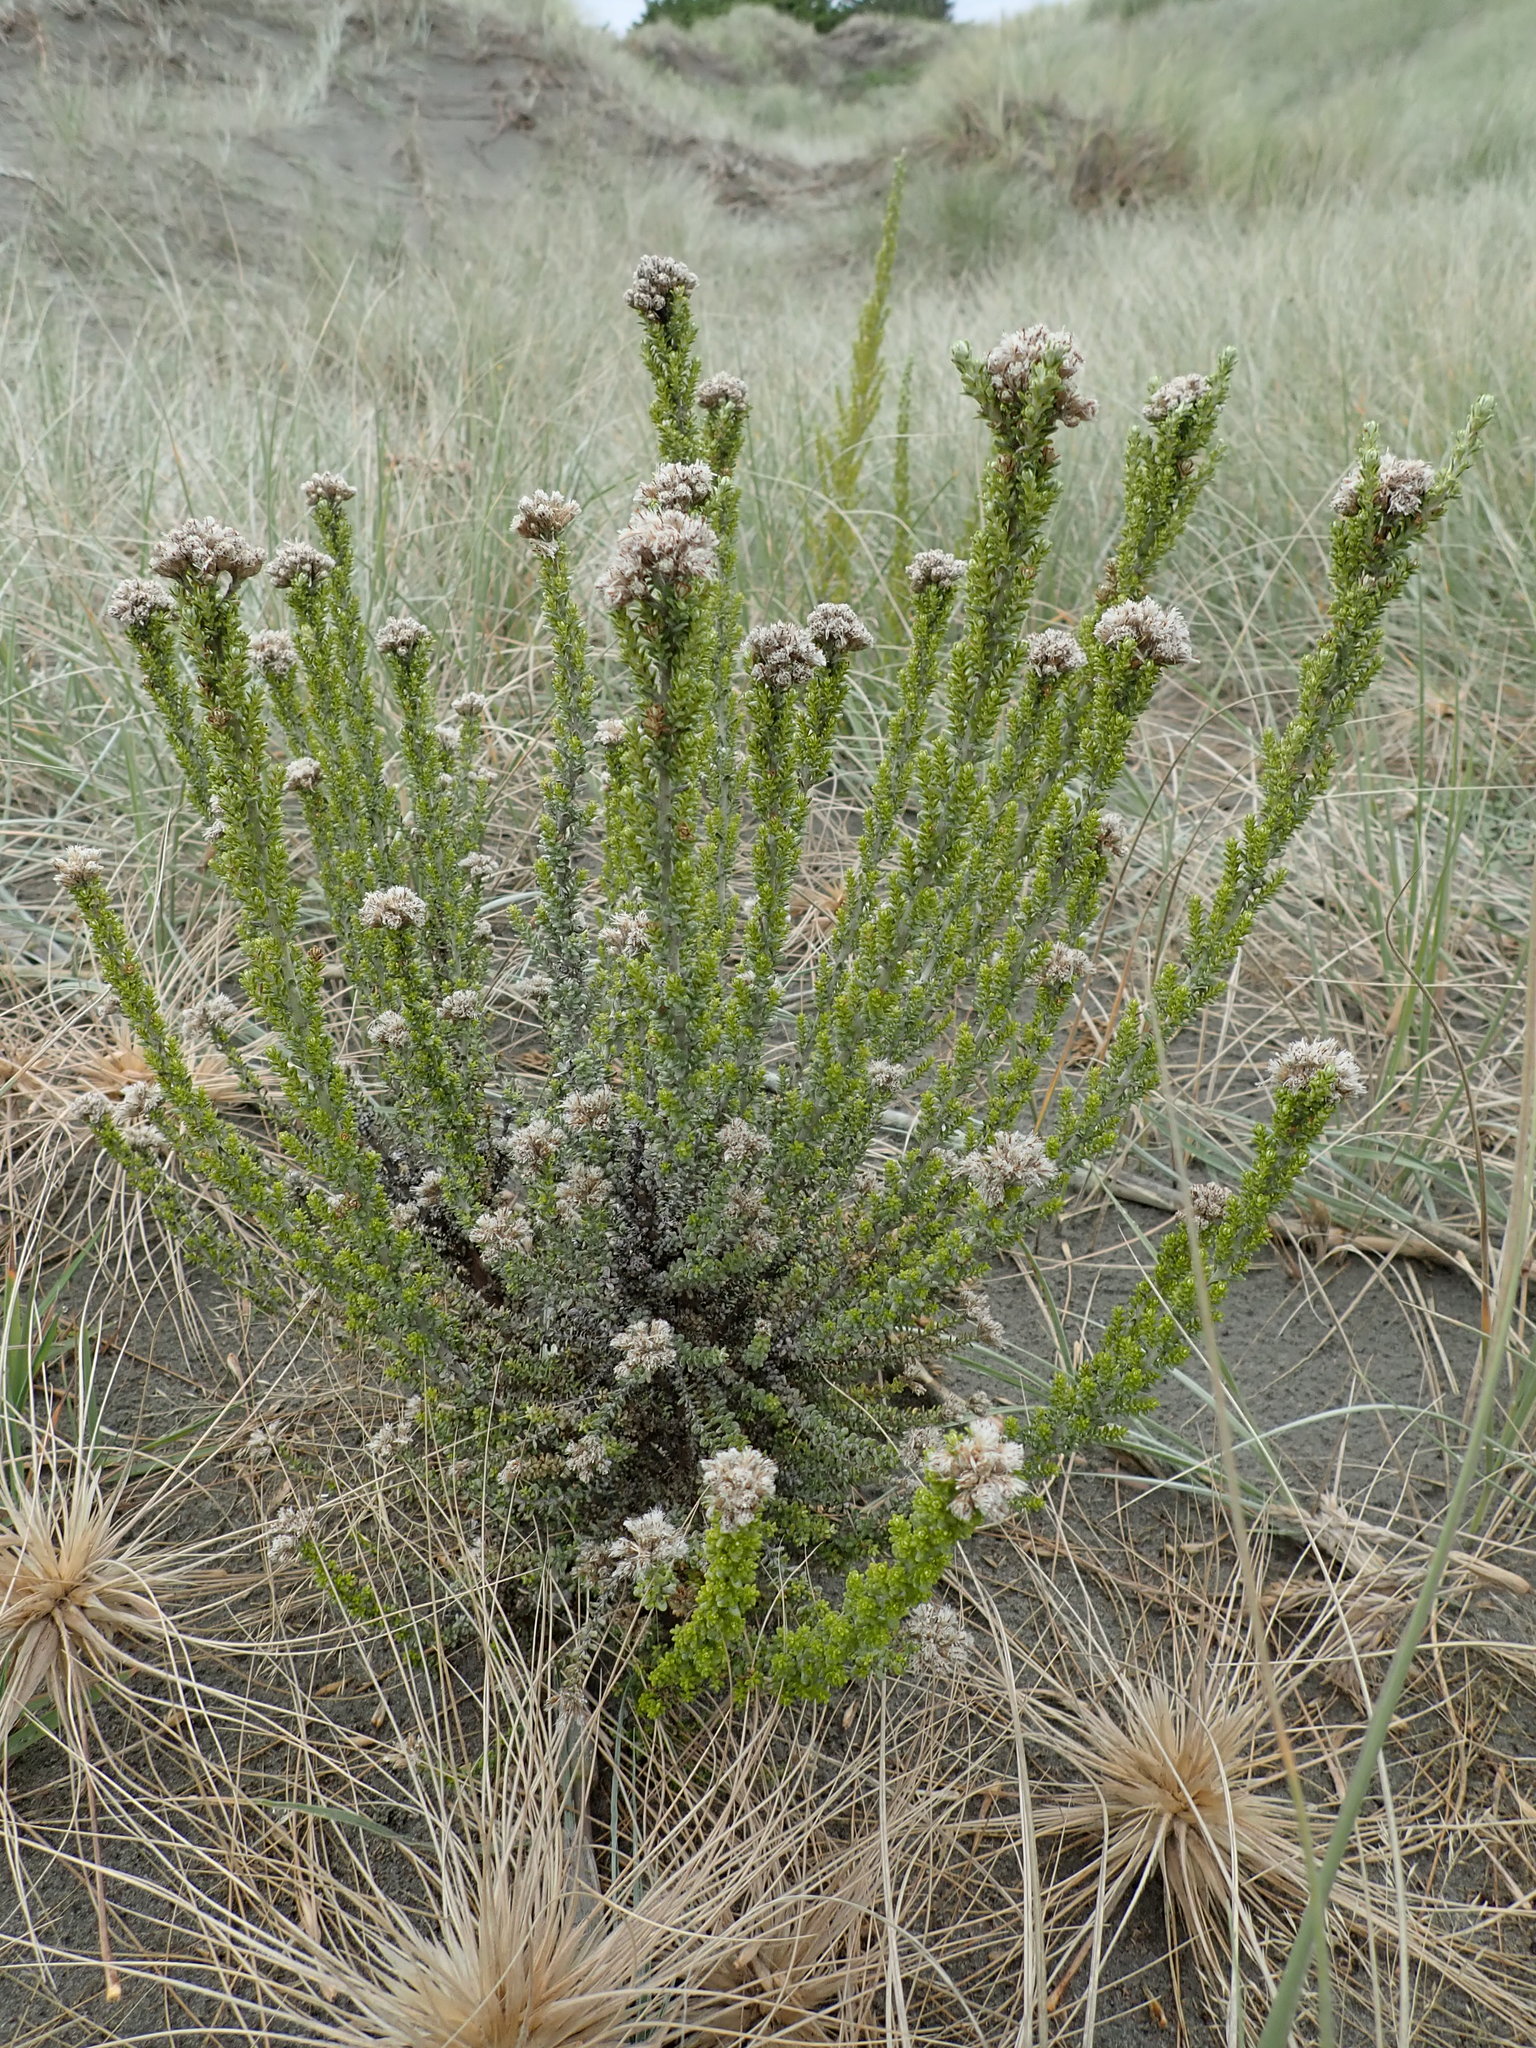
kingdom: Plantae
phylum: Tracheophyta
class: Magnoliopsida
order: Asterales
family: Asteraceae
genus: Ozothamnus
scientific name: Ozothamnus leptophyllus
